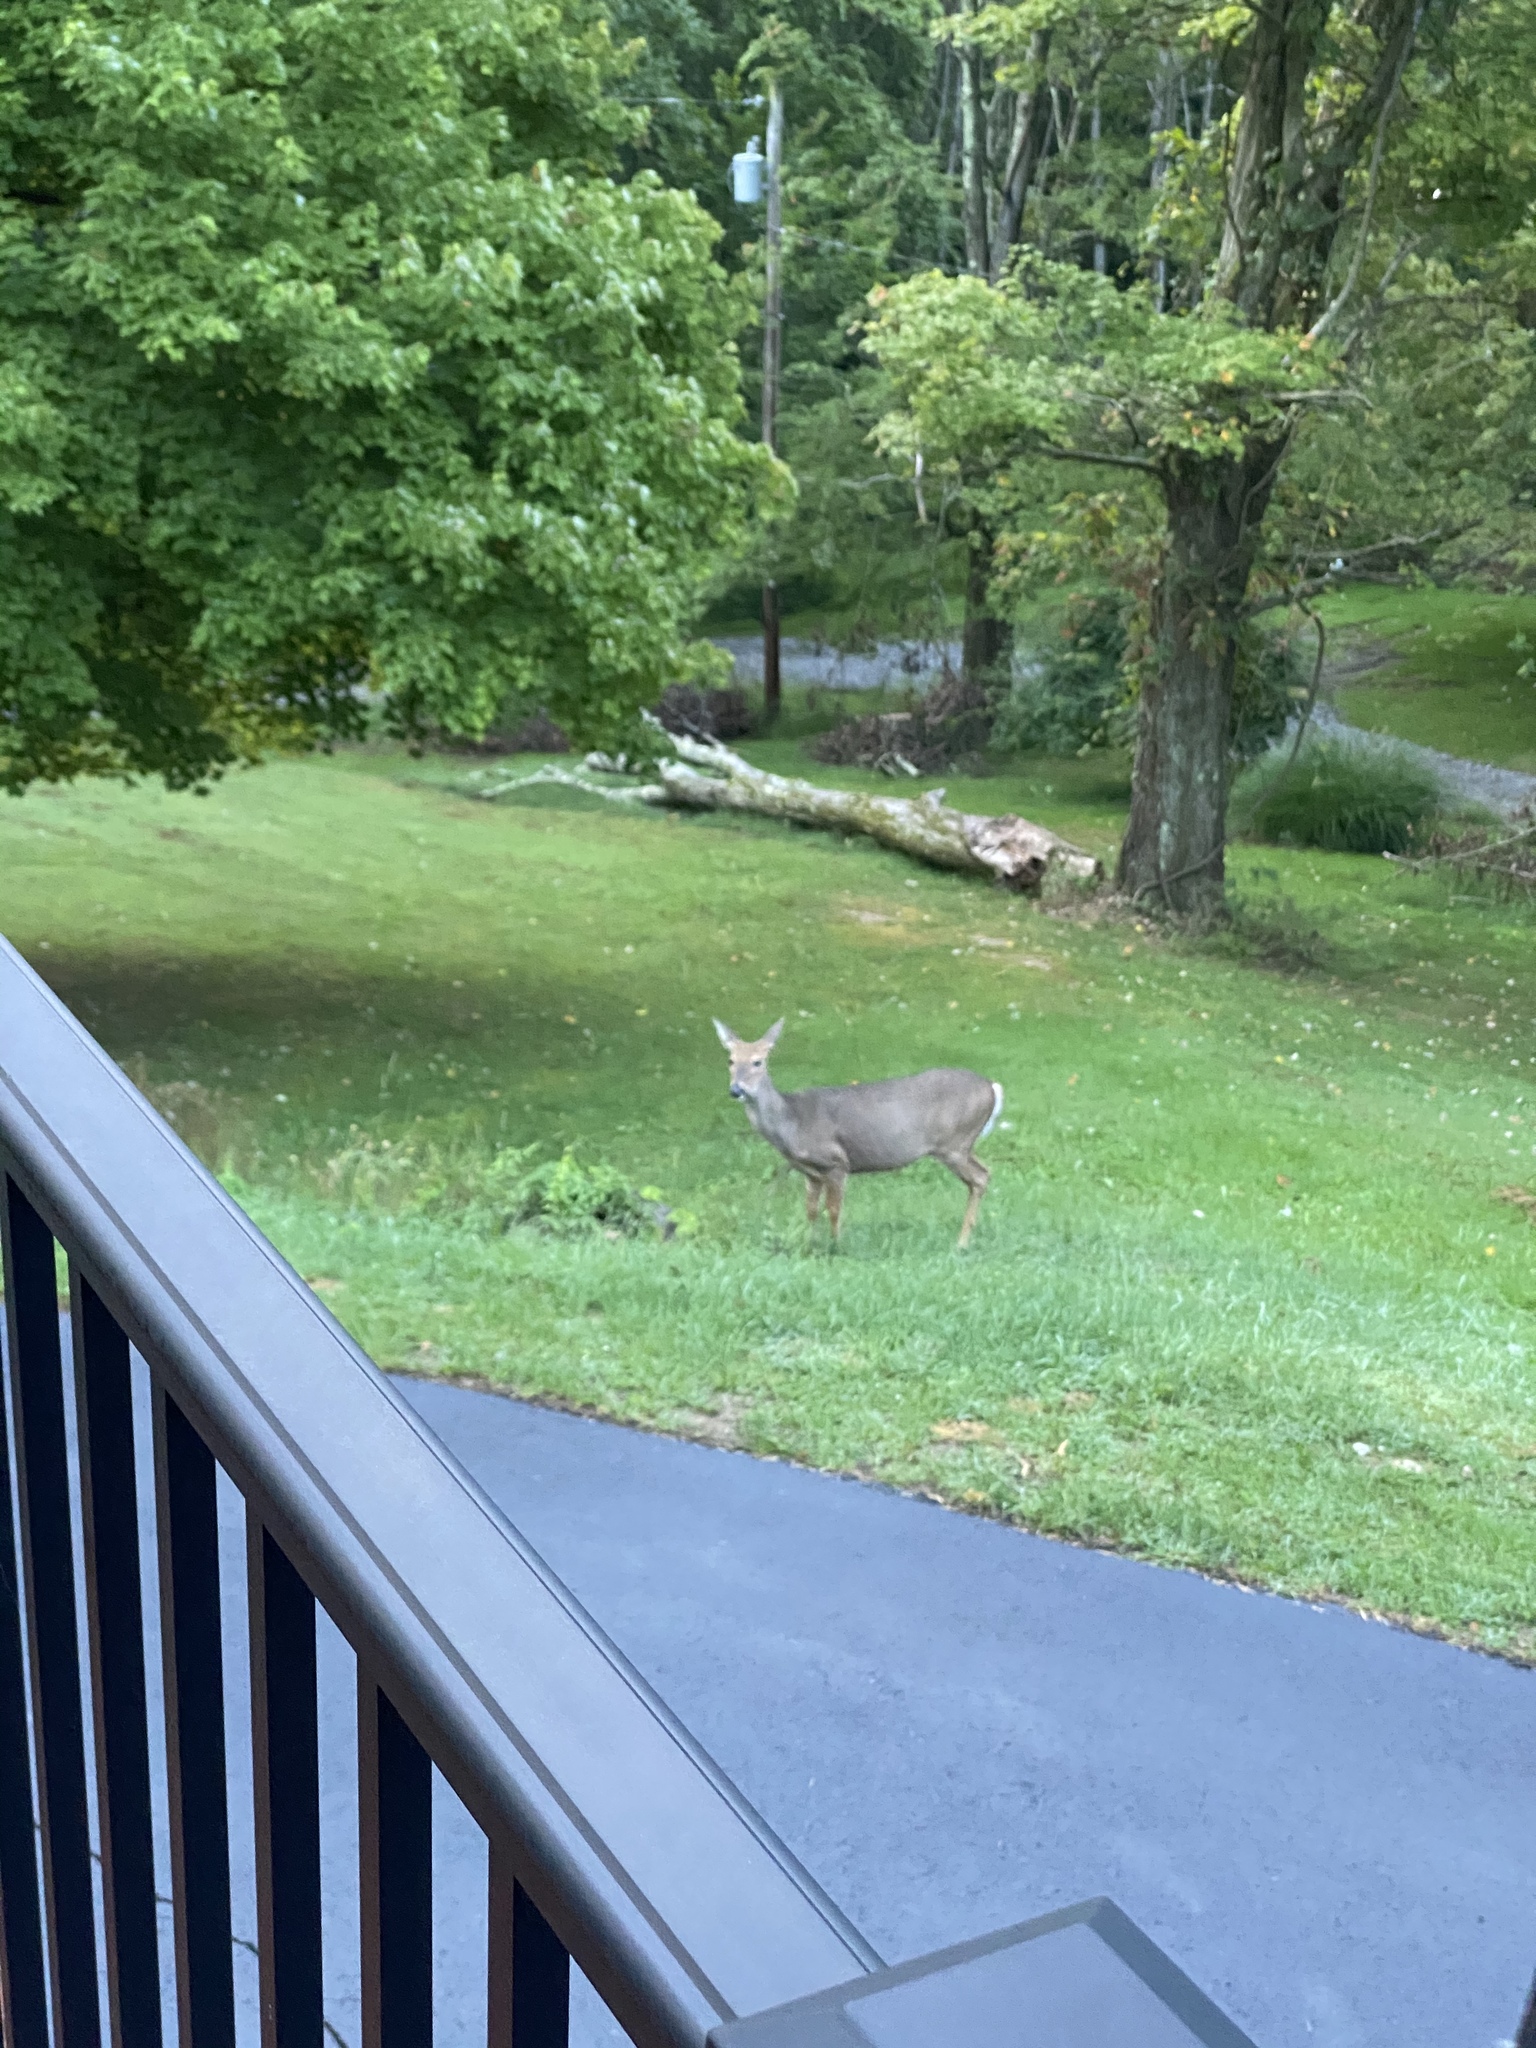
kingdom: Animalia
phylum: Chordata
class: Mammalia
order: Artiodactyla
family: Cervidae
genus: Odocoileus
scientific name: Odocoileus virginianus
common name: White-tailed deer
